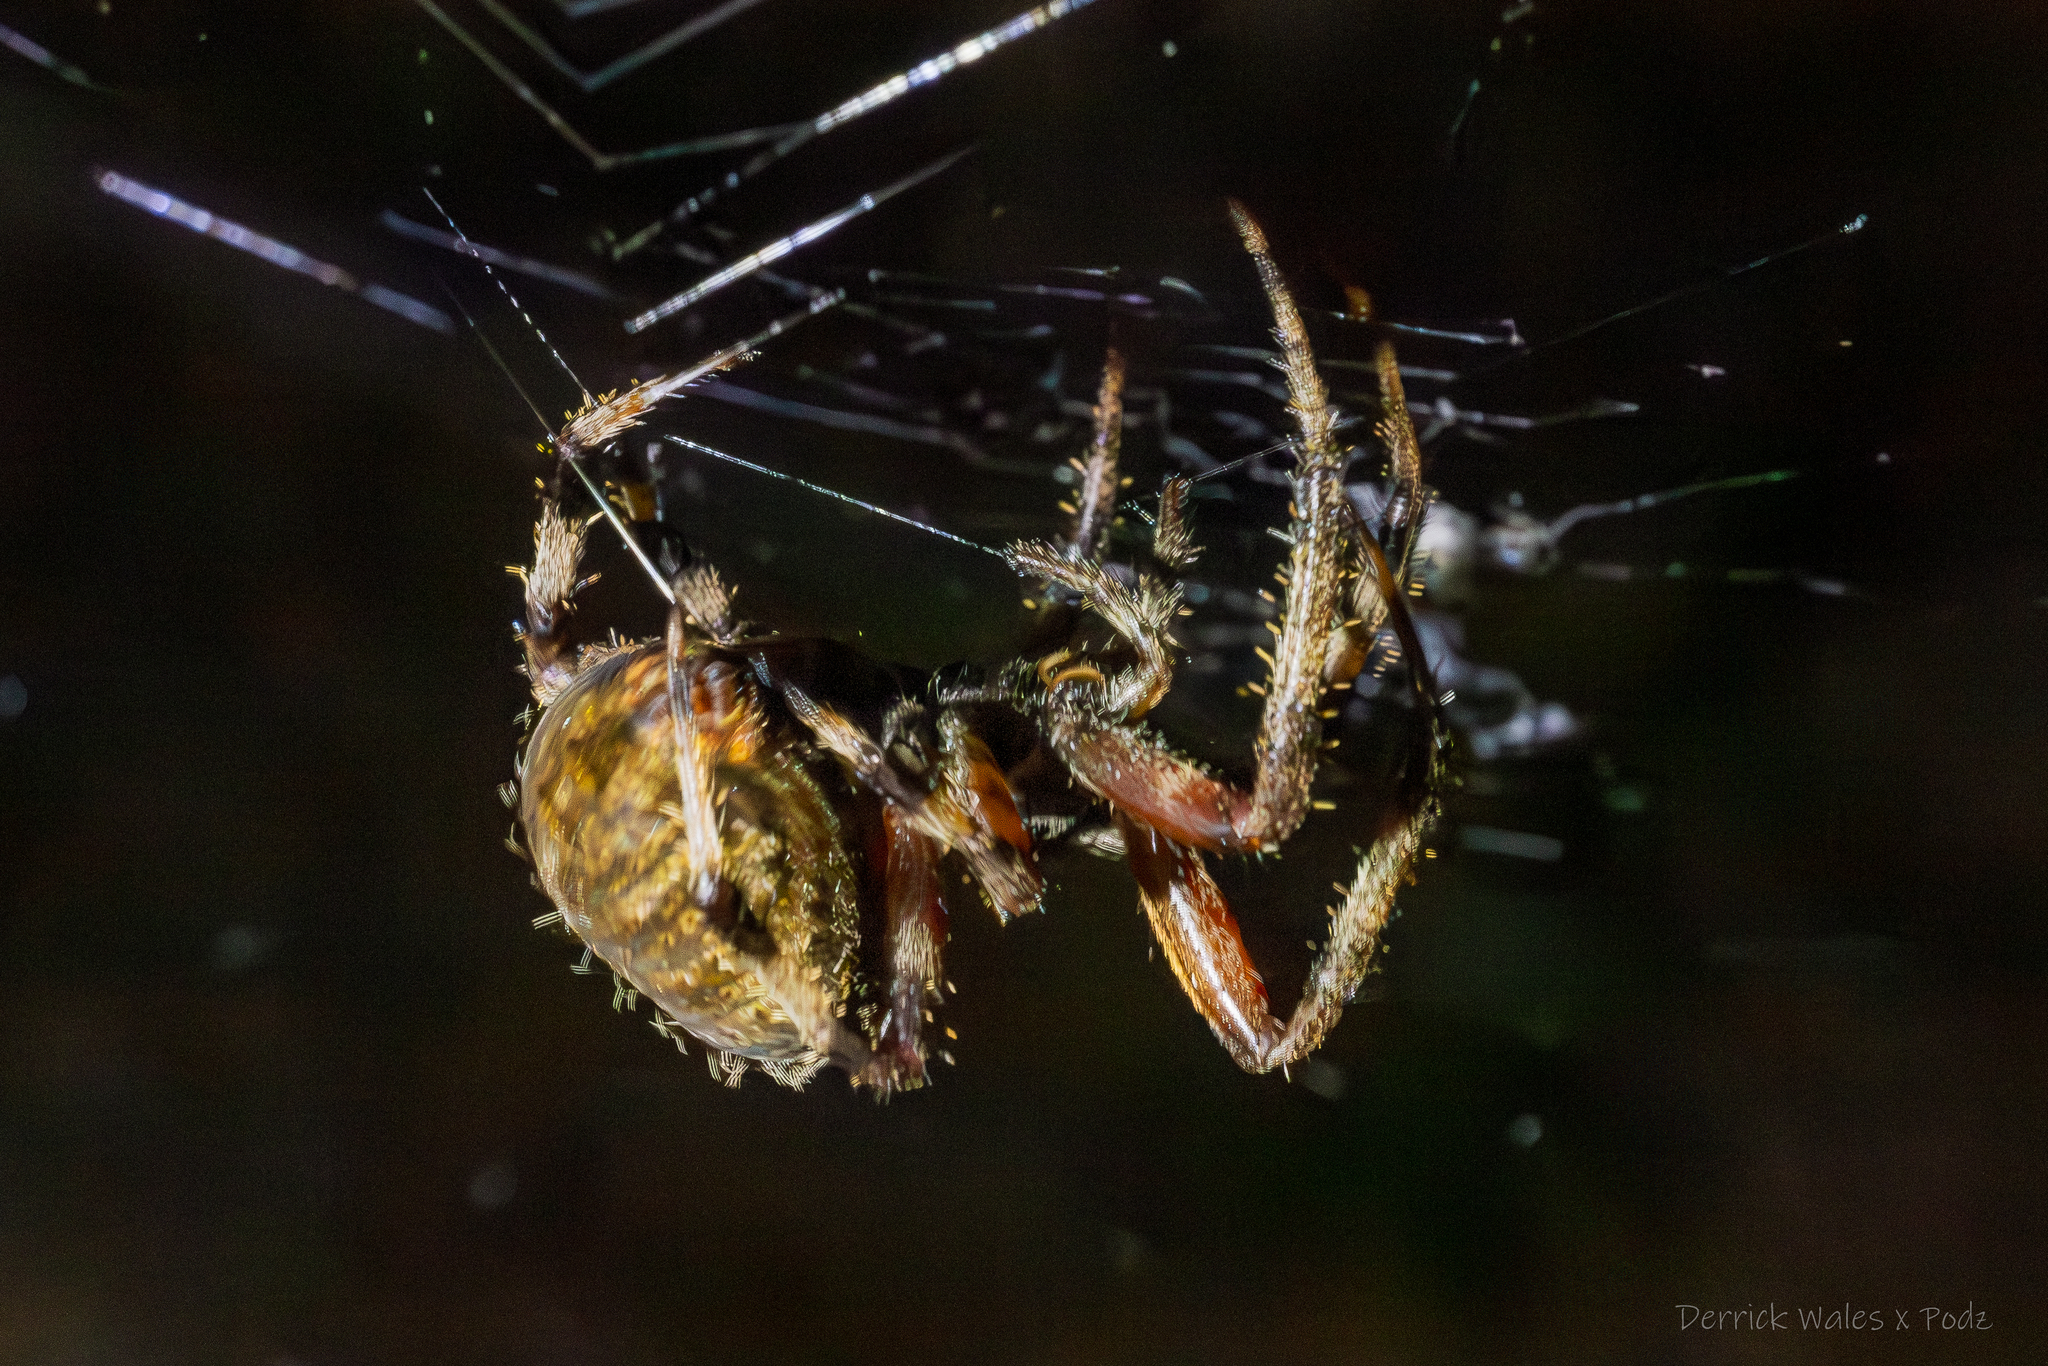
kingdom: Animalia
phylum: Arthropoda
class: Arachnida
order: Araneae
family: Araneidae
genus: Neoscona
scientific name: Neoscona crucifera
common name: Spotted orbweaver
